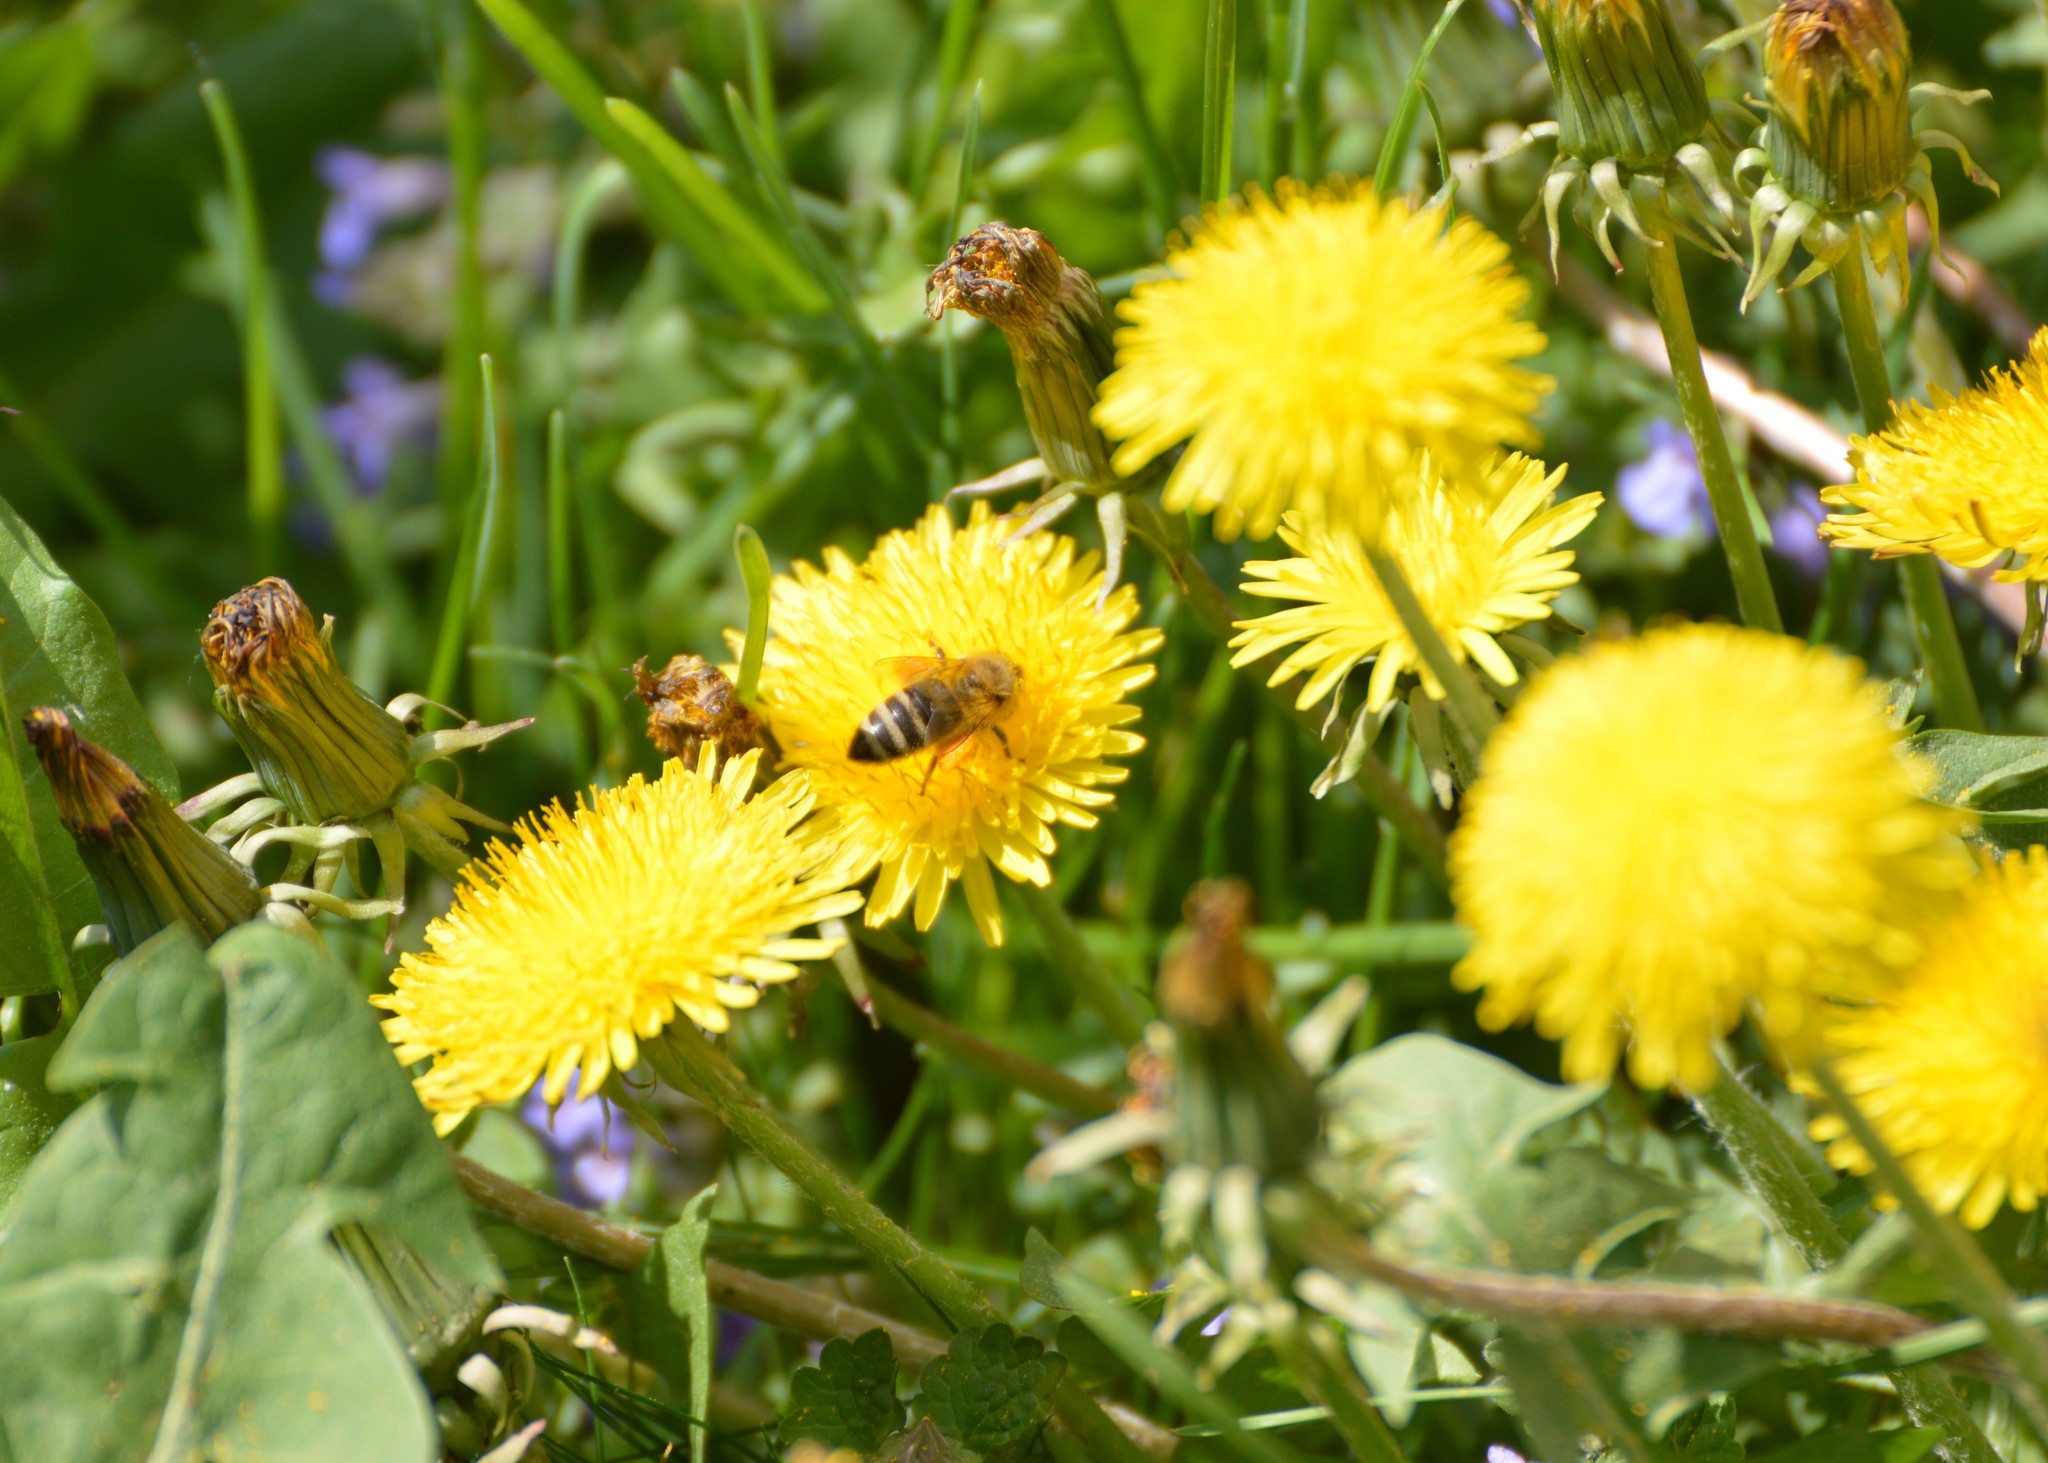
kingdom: Animalia
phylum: Arthropoda
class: Insecta
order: Hymenoptera
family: Apidae
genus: Apis
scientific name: Apis mellifera
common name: Honey bee
